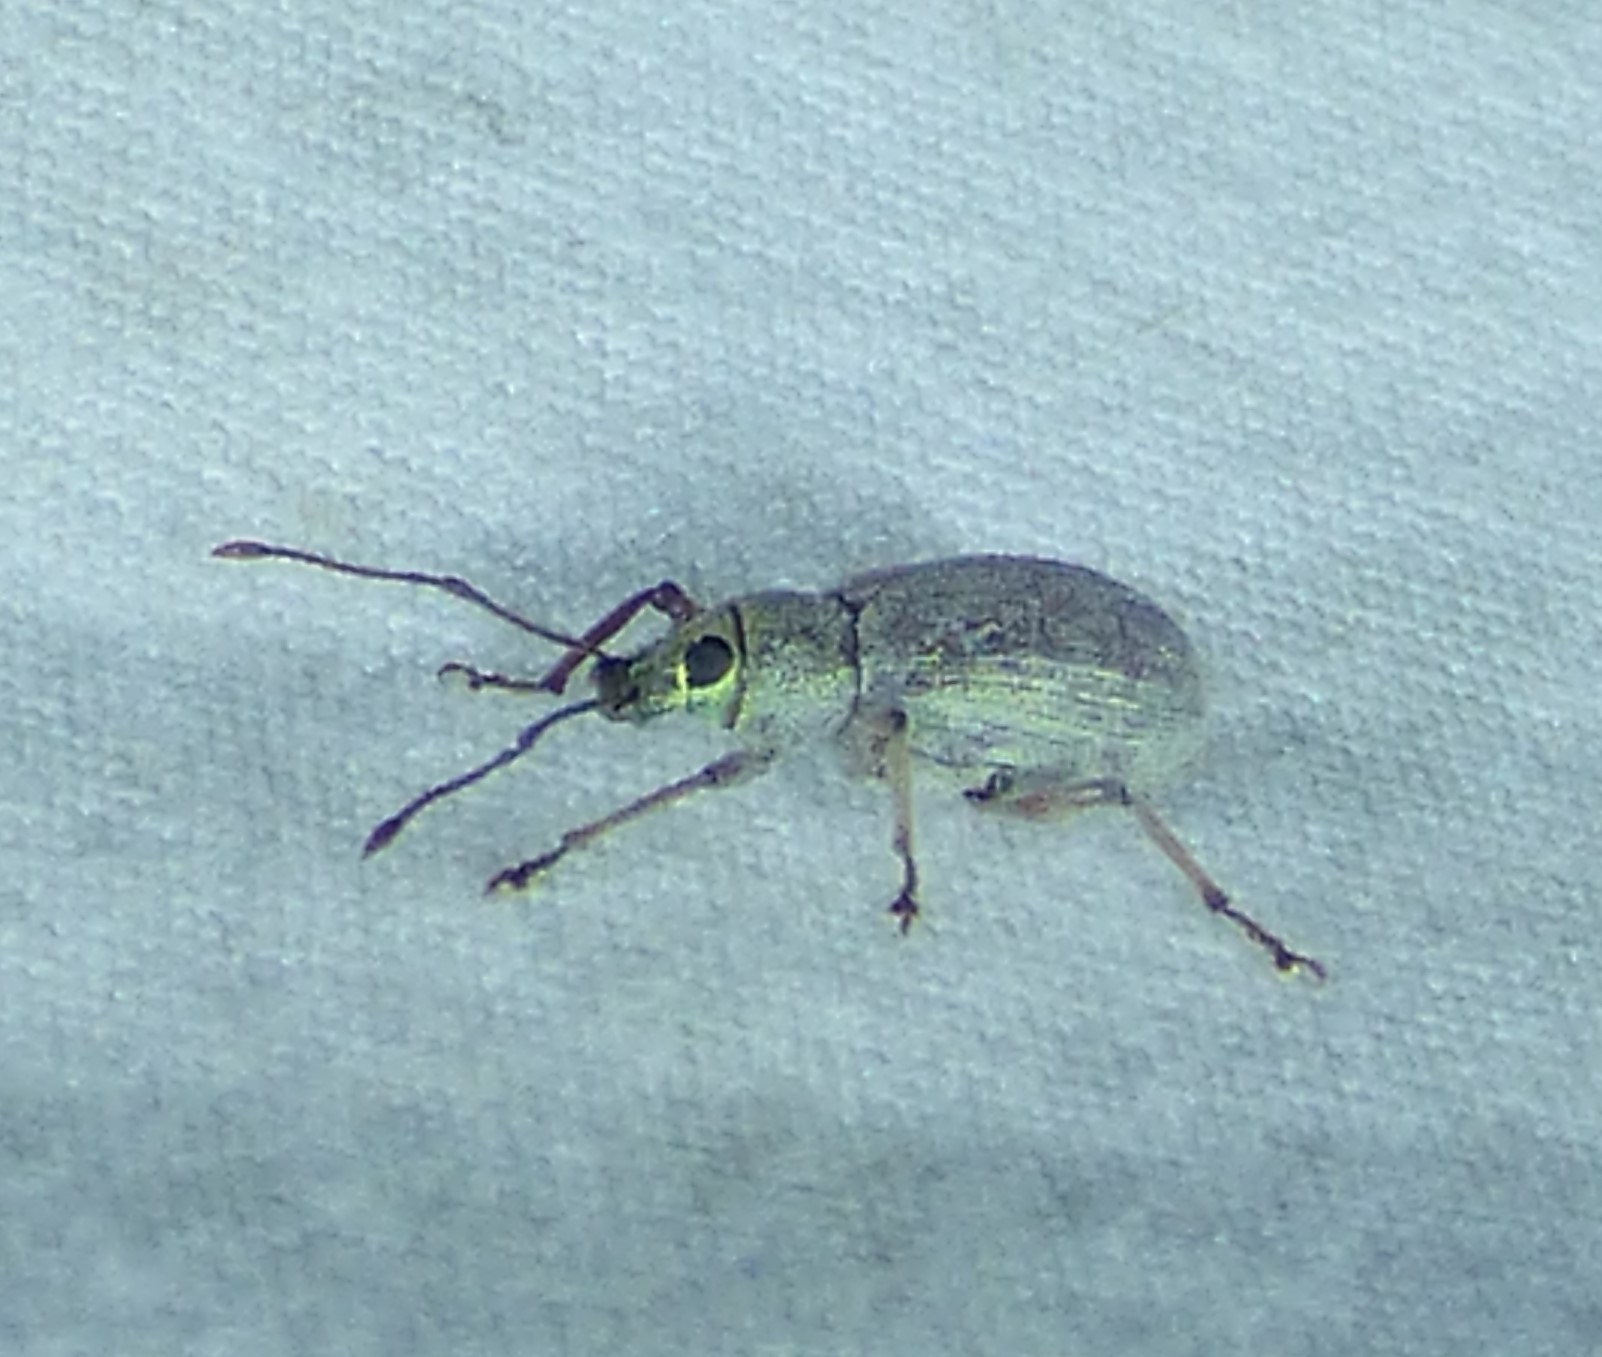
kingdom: Animalia
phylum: Arthropoda
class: Insecta
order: Coleoptera
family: Curculionidae
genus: Cyrtepistomus
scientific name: Cyrtepistomus castaneus
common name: Weevil
